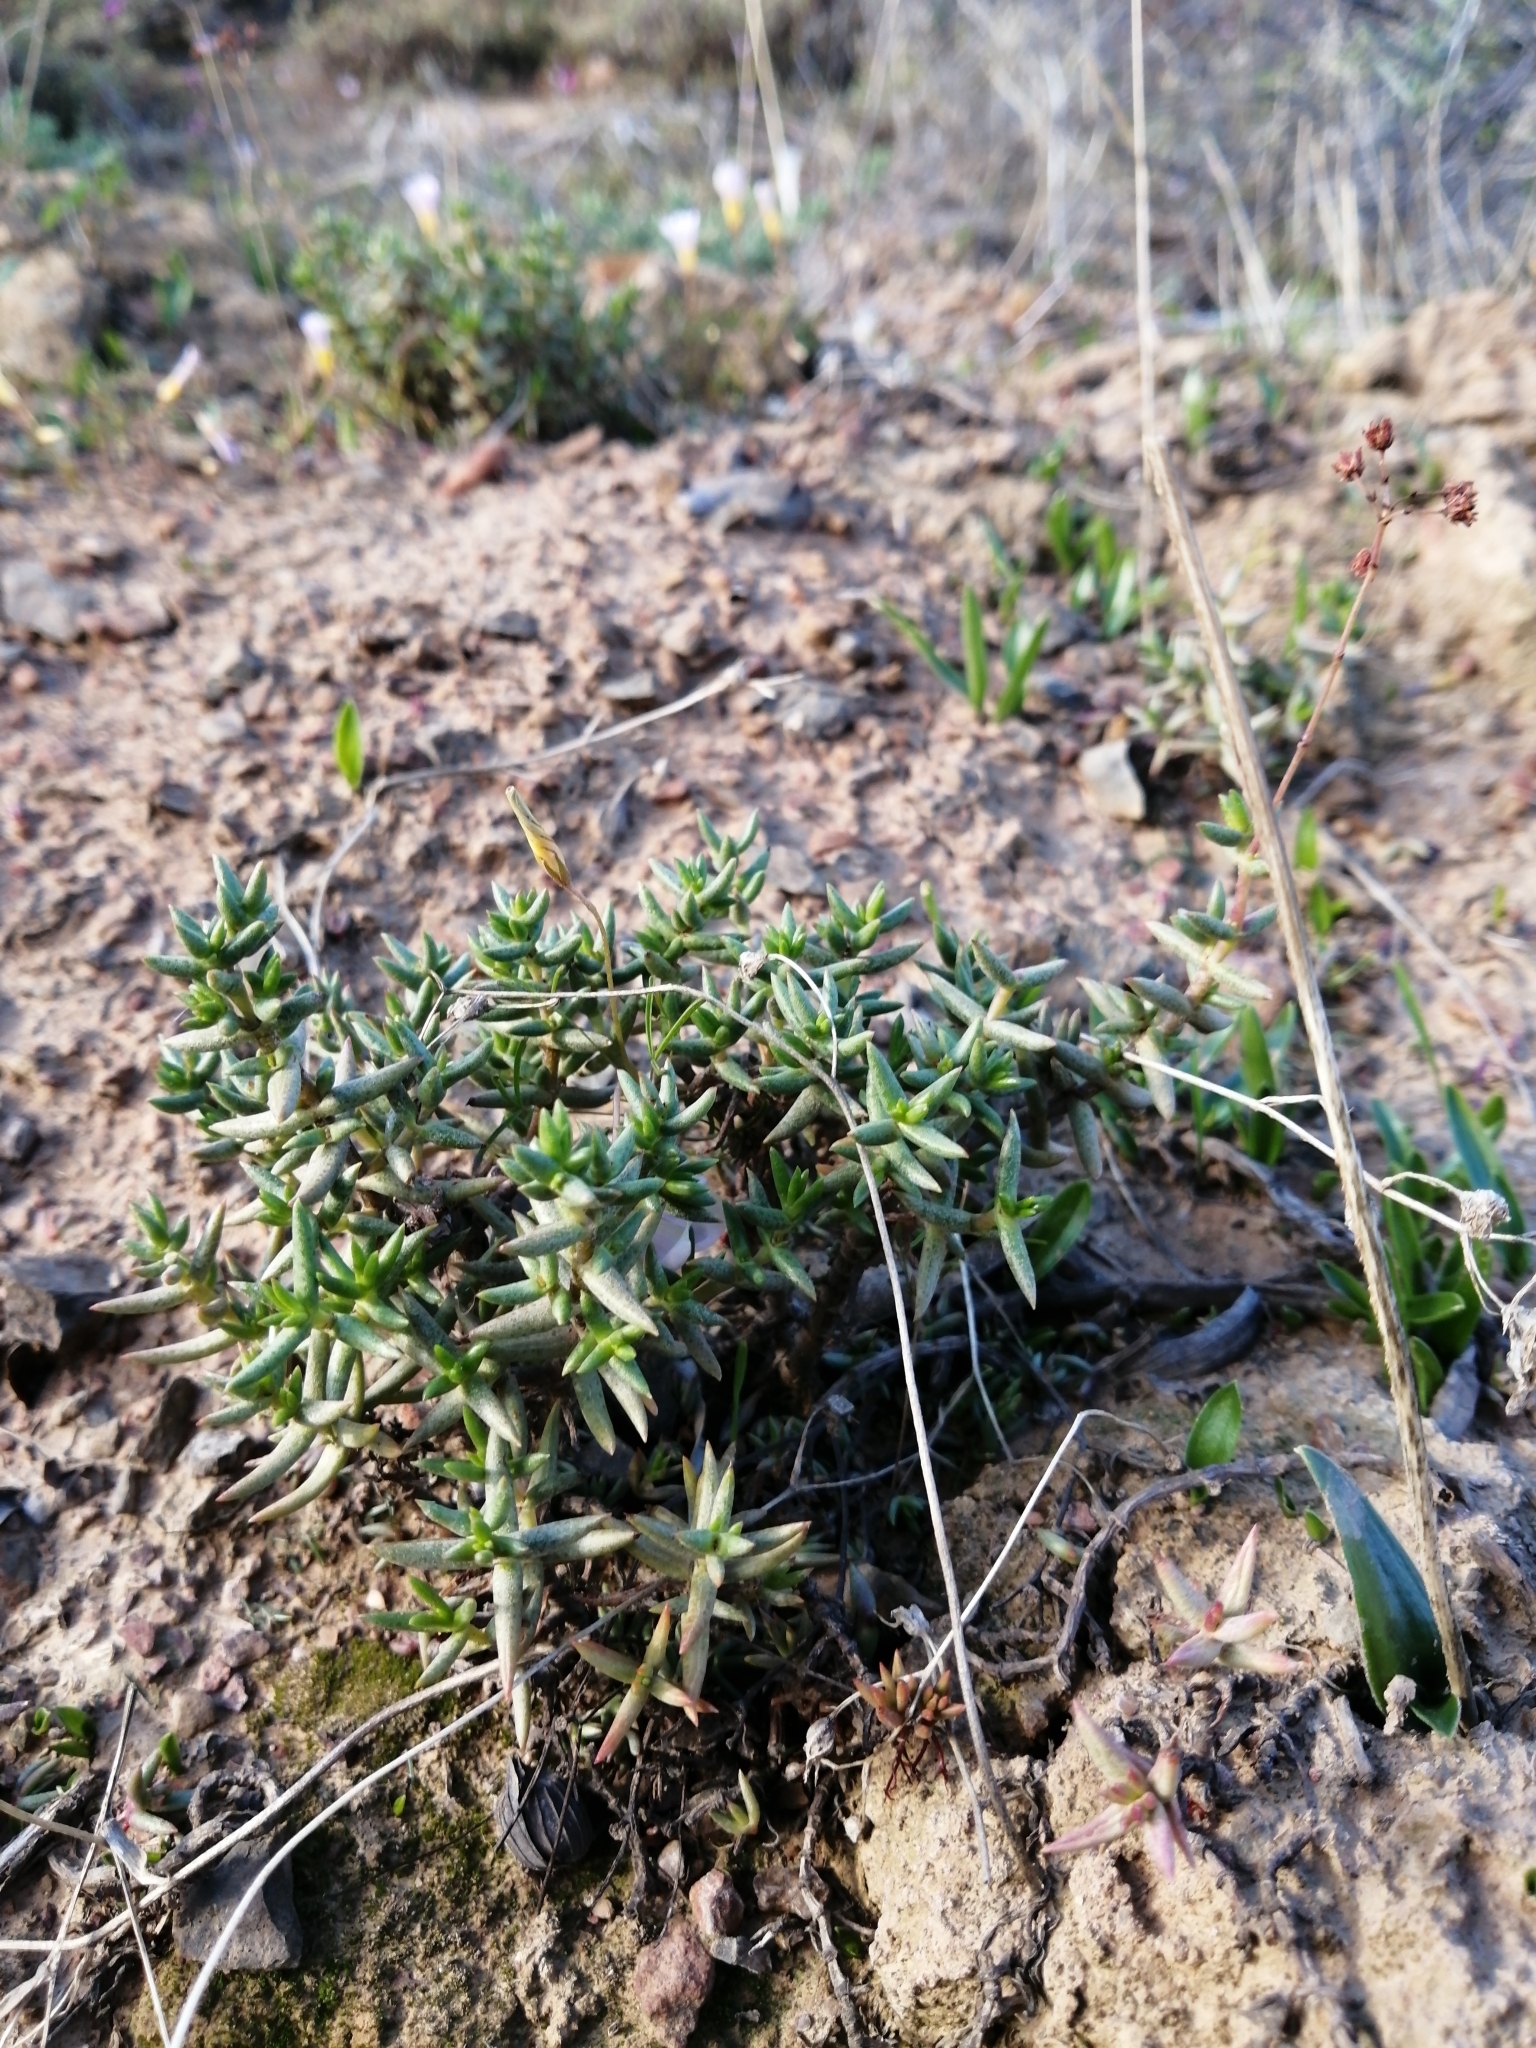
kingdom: Plantae
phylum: Tracheophyta
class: Magnoliopsida
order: Saxifragales
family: Crassulaceae
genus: Crassula
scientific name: Crassula tetragona
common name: Pygmyweed
